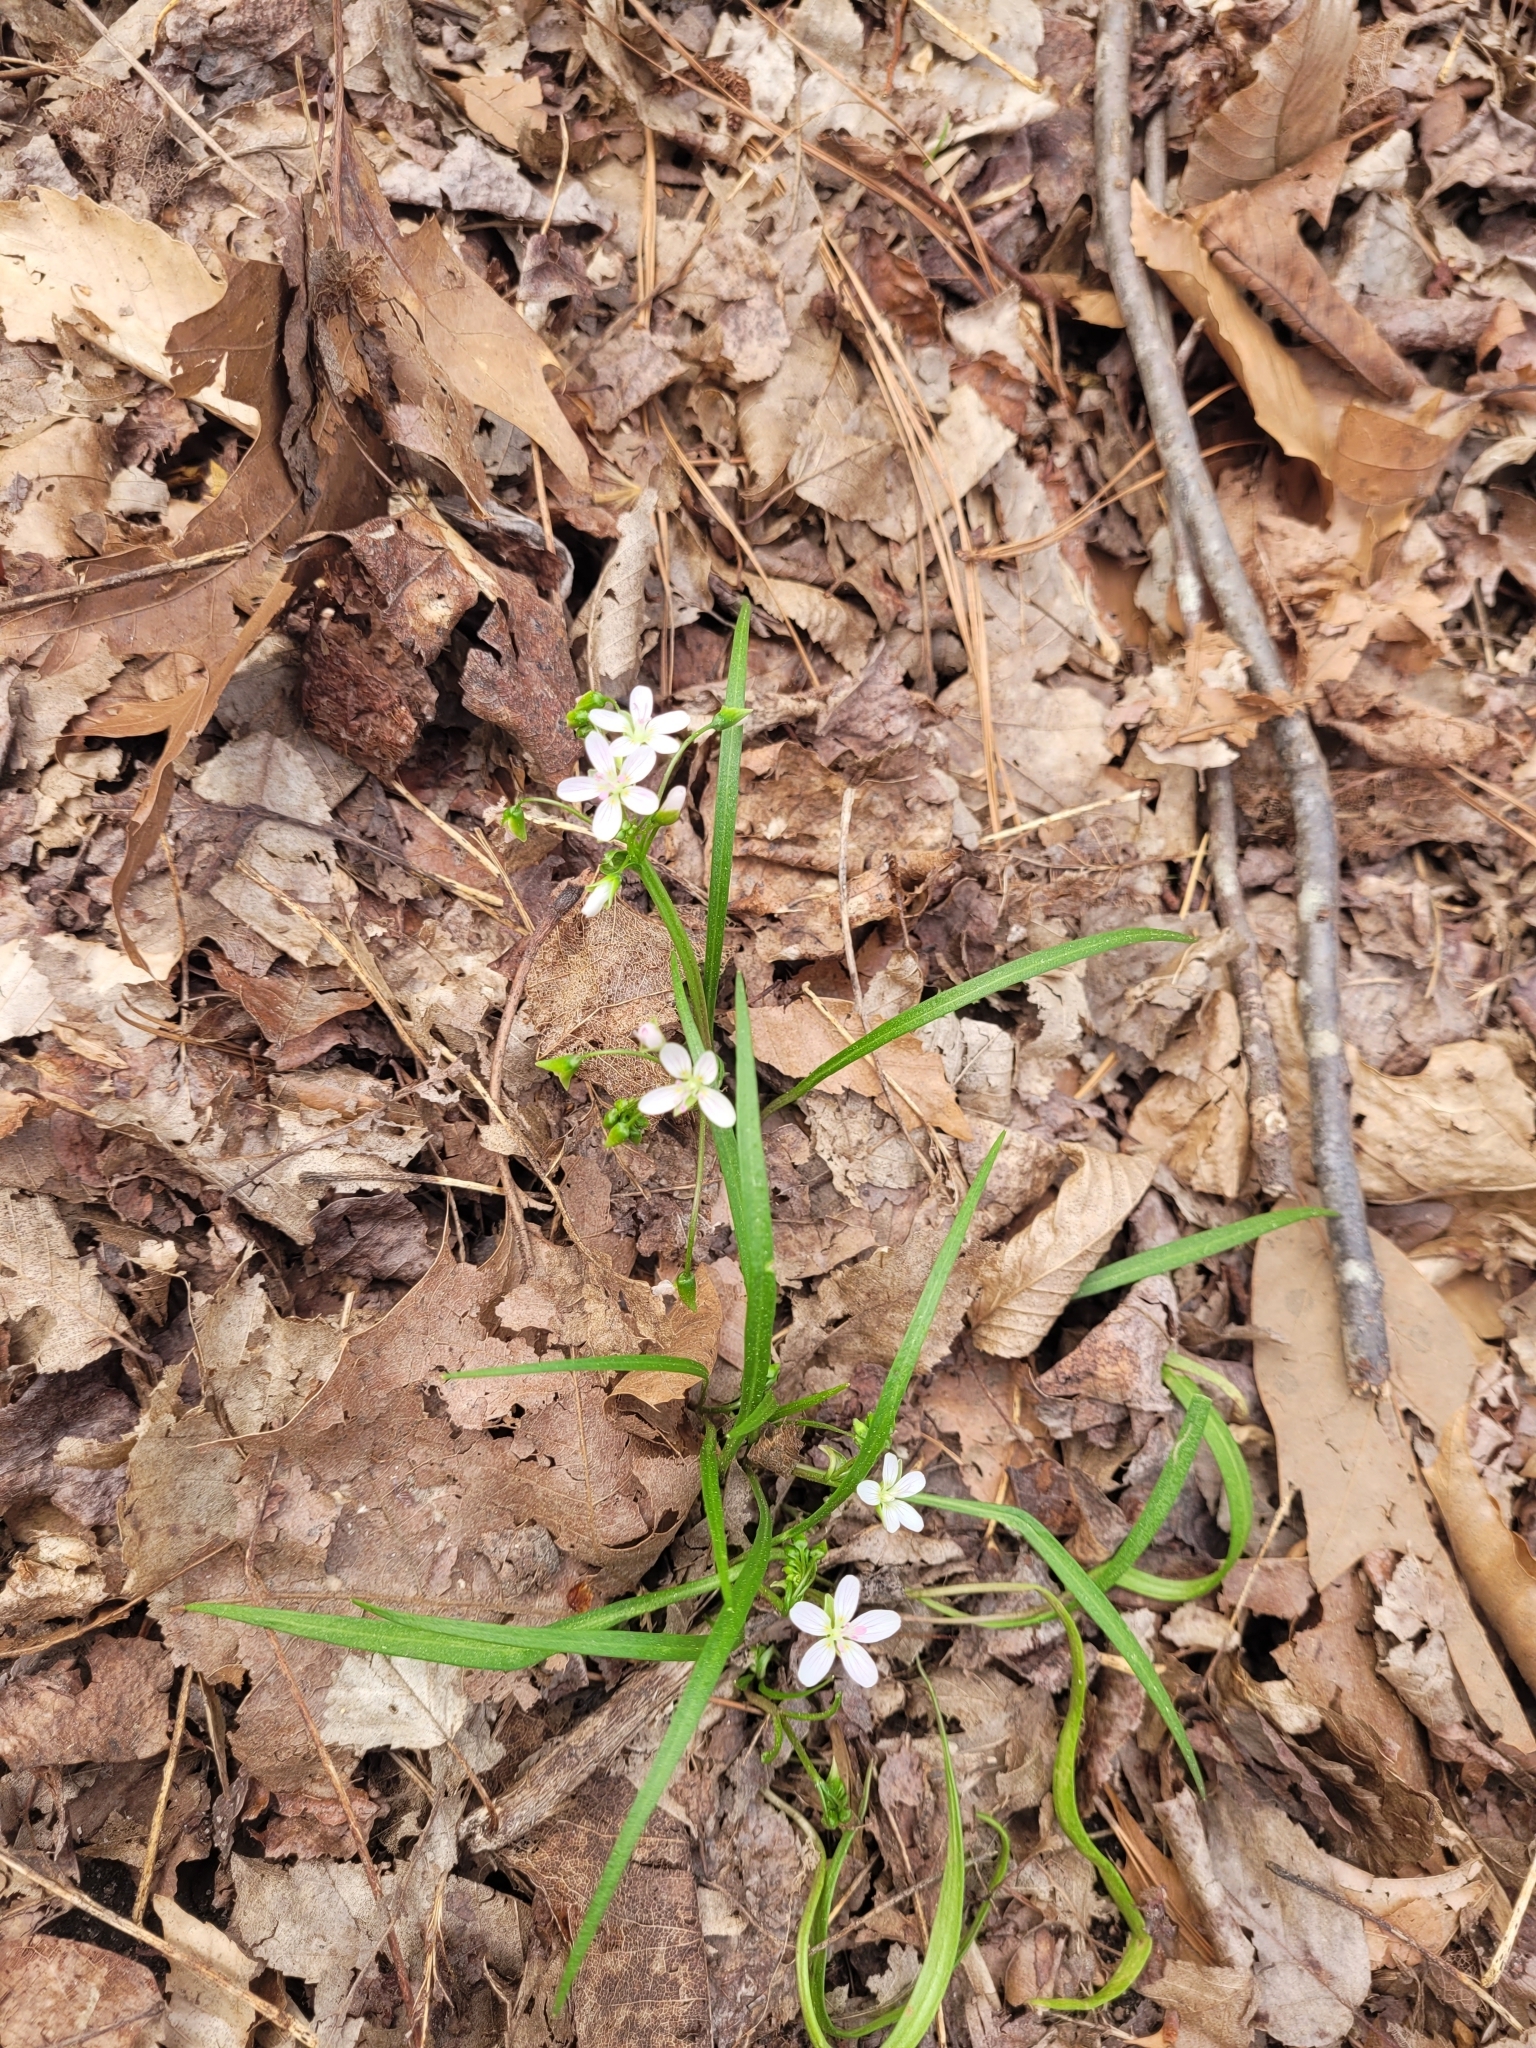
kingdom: Plantae
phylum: Tracheophyta
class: Magnoliopsida
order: Caryophyllales
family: Montiaceae
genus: Claytonia
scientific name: Claytonia virginica
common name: Virginia springbeauty
